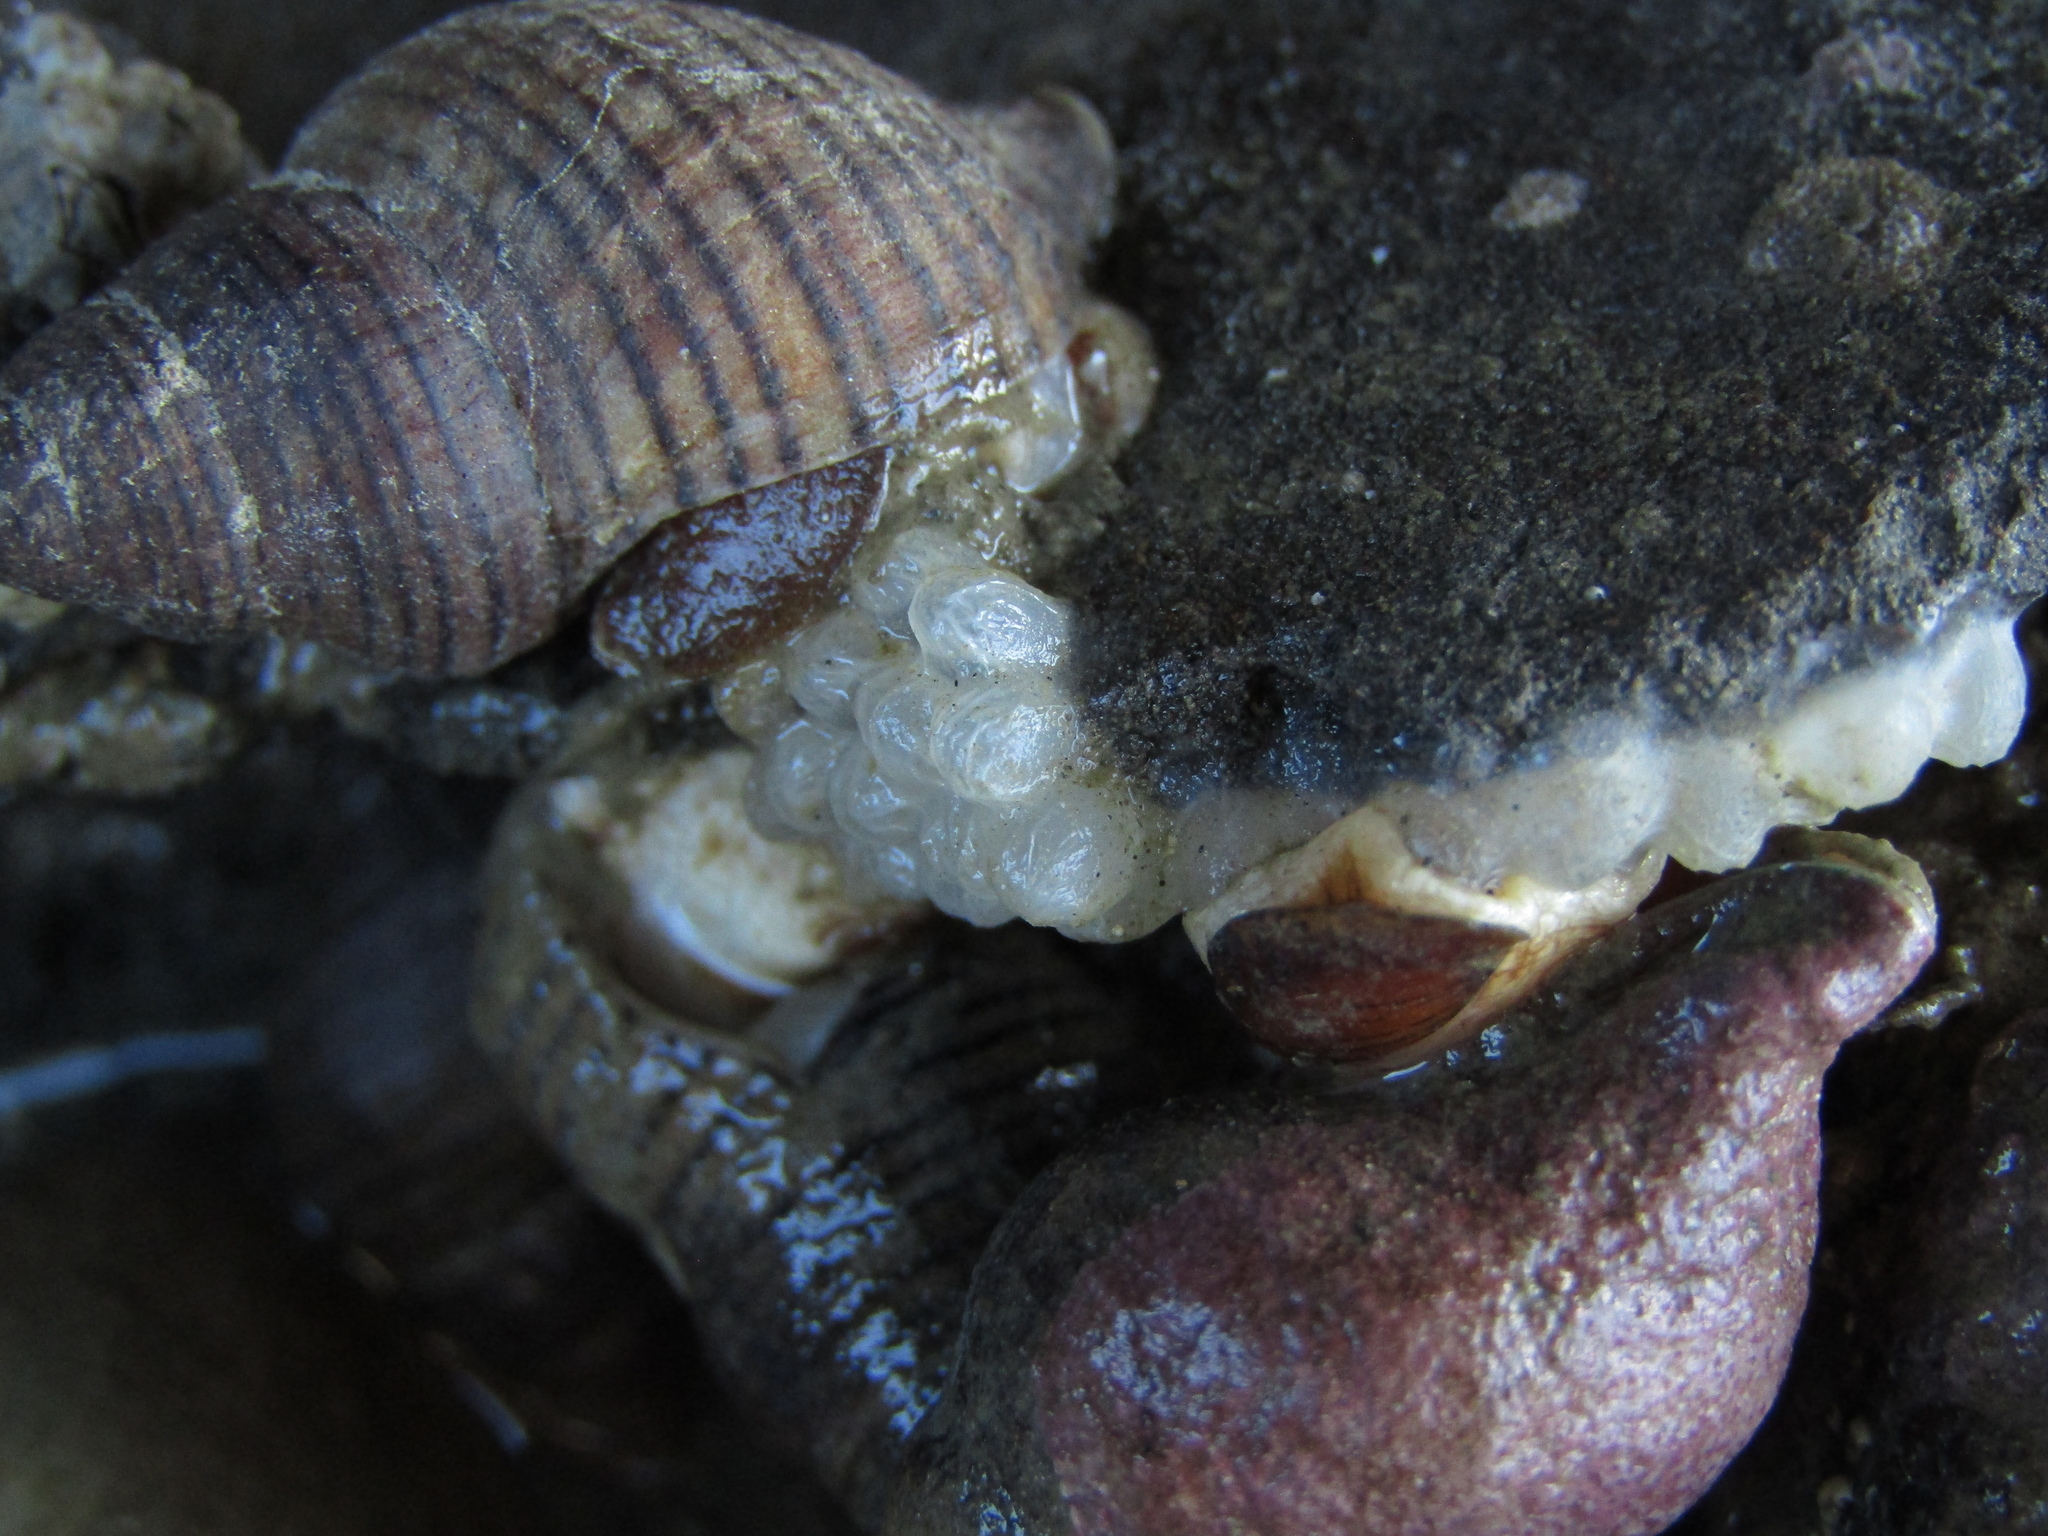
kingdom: Animalia
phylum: Mollusca
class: Gastropoda
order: Neogastropoda
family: Tudiclidae
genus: Buccinulum
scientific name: Buccinulum linea
